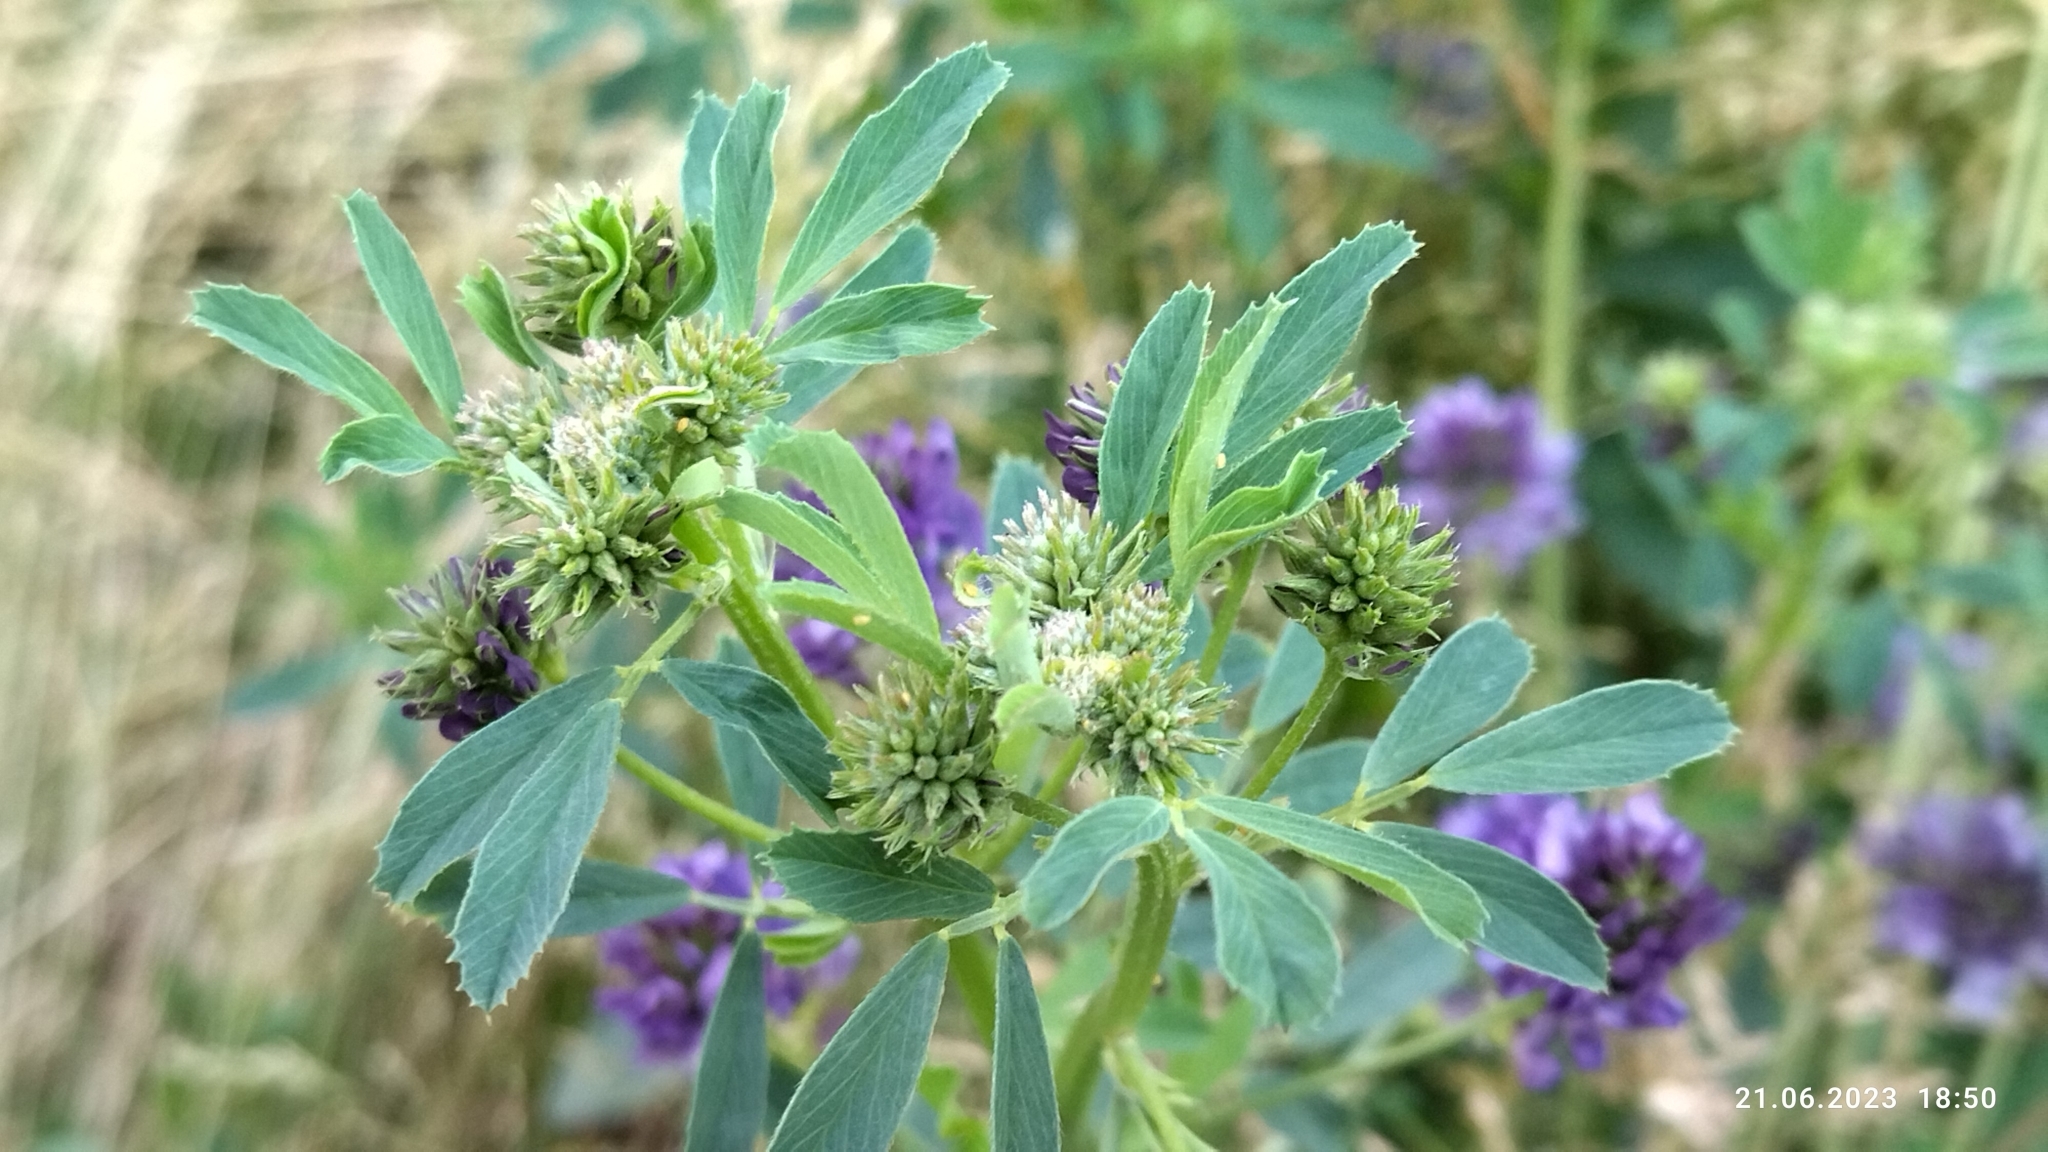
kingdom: Plantae
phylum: Tracheophyta
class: Magnoliopsida
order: Fabales
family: Fabaceae
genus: Medicago
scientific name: Medicago sativa
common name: Alfalfa
